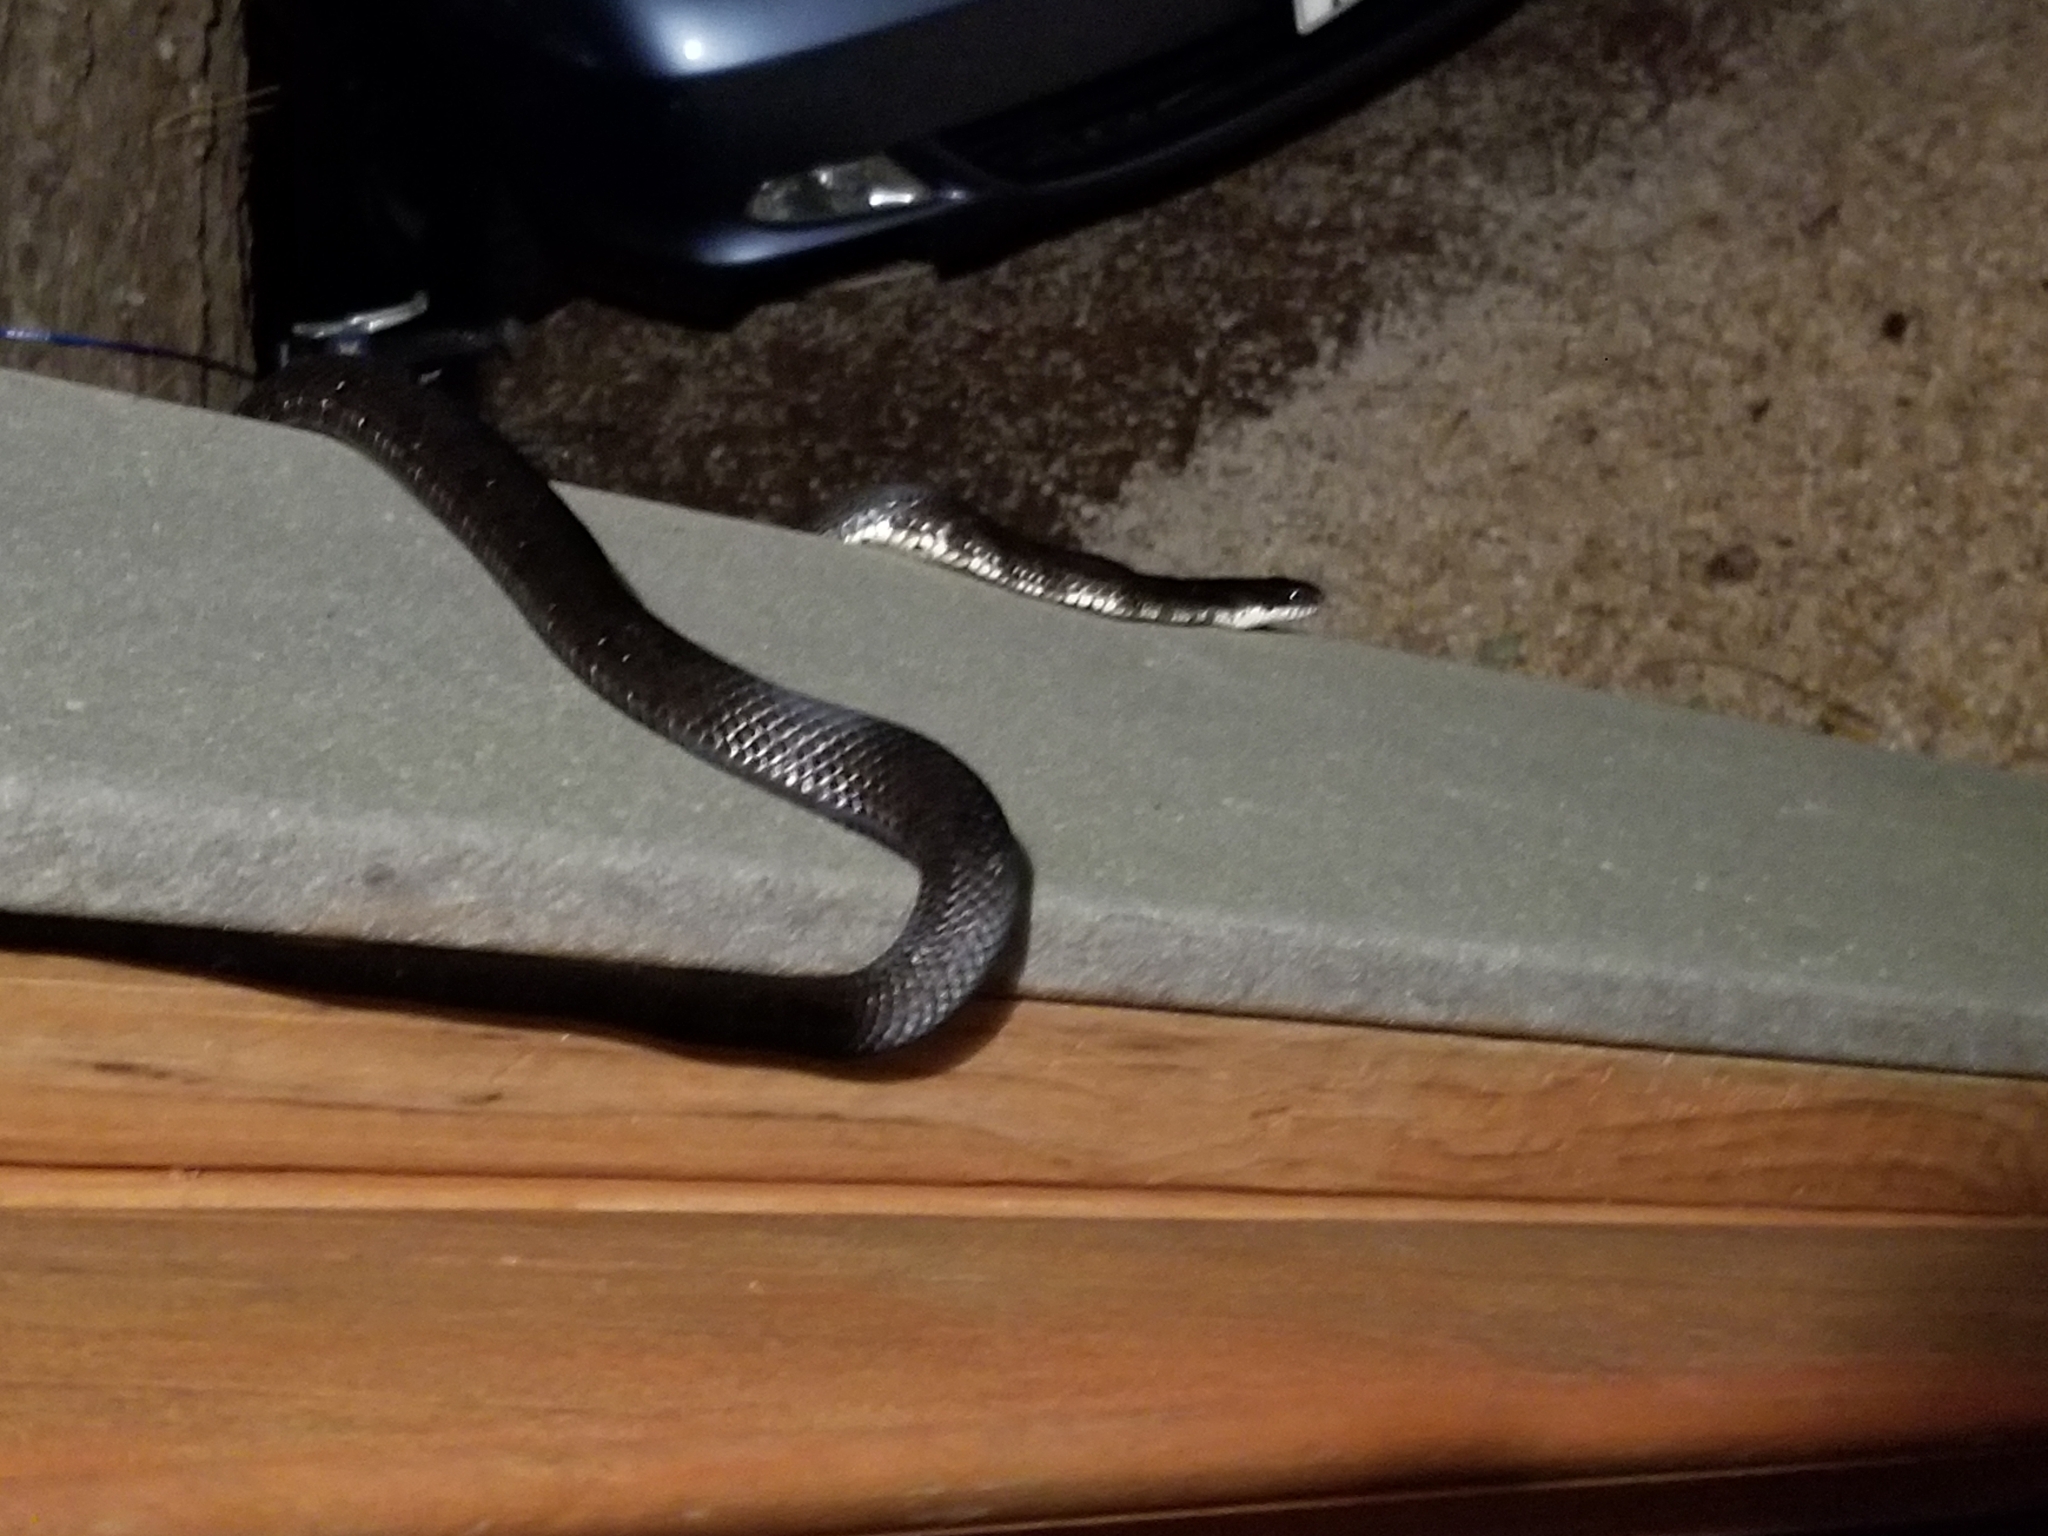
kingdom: Animalia
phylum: Chordata
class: Squamata
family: Colubridae
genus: Pantherophis
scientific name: Pantherophis alleghaniensis
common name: Eastern rat snake
